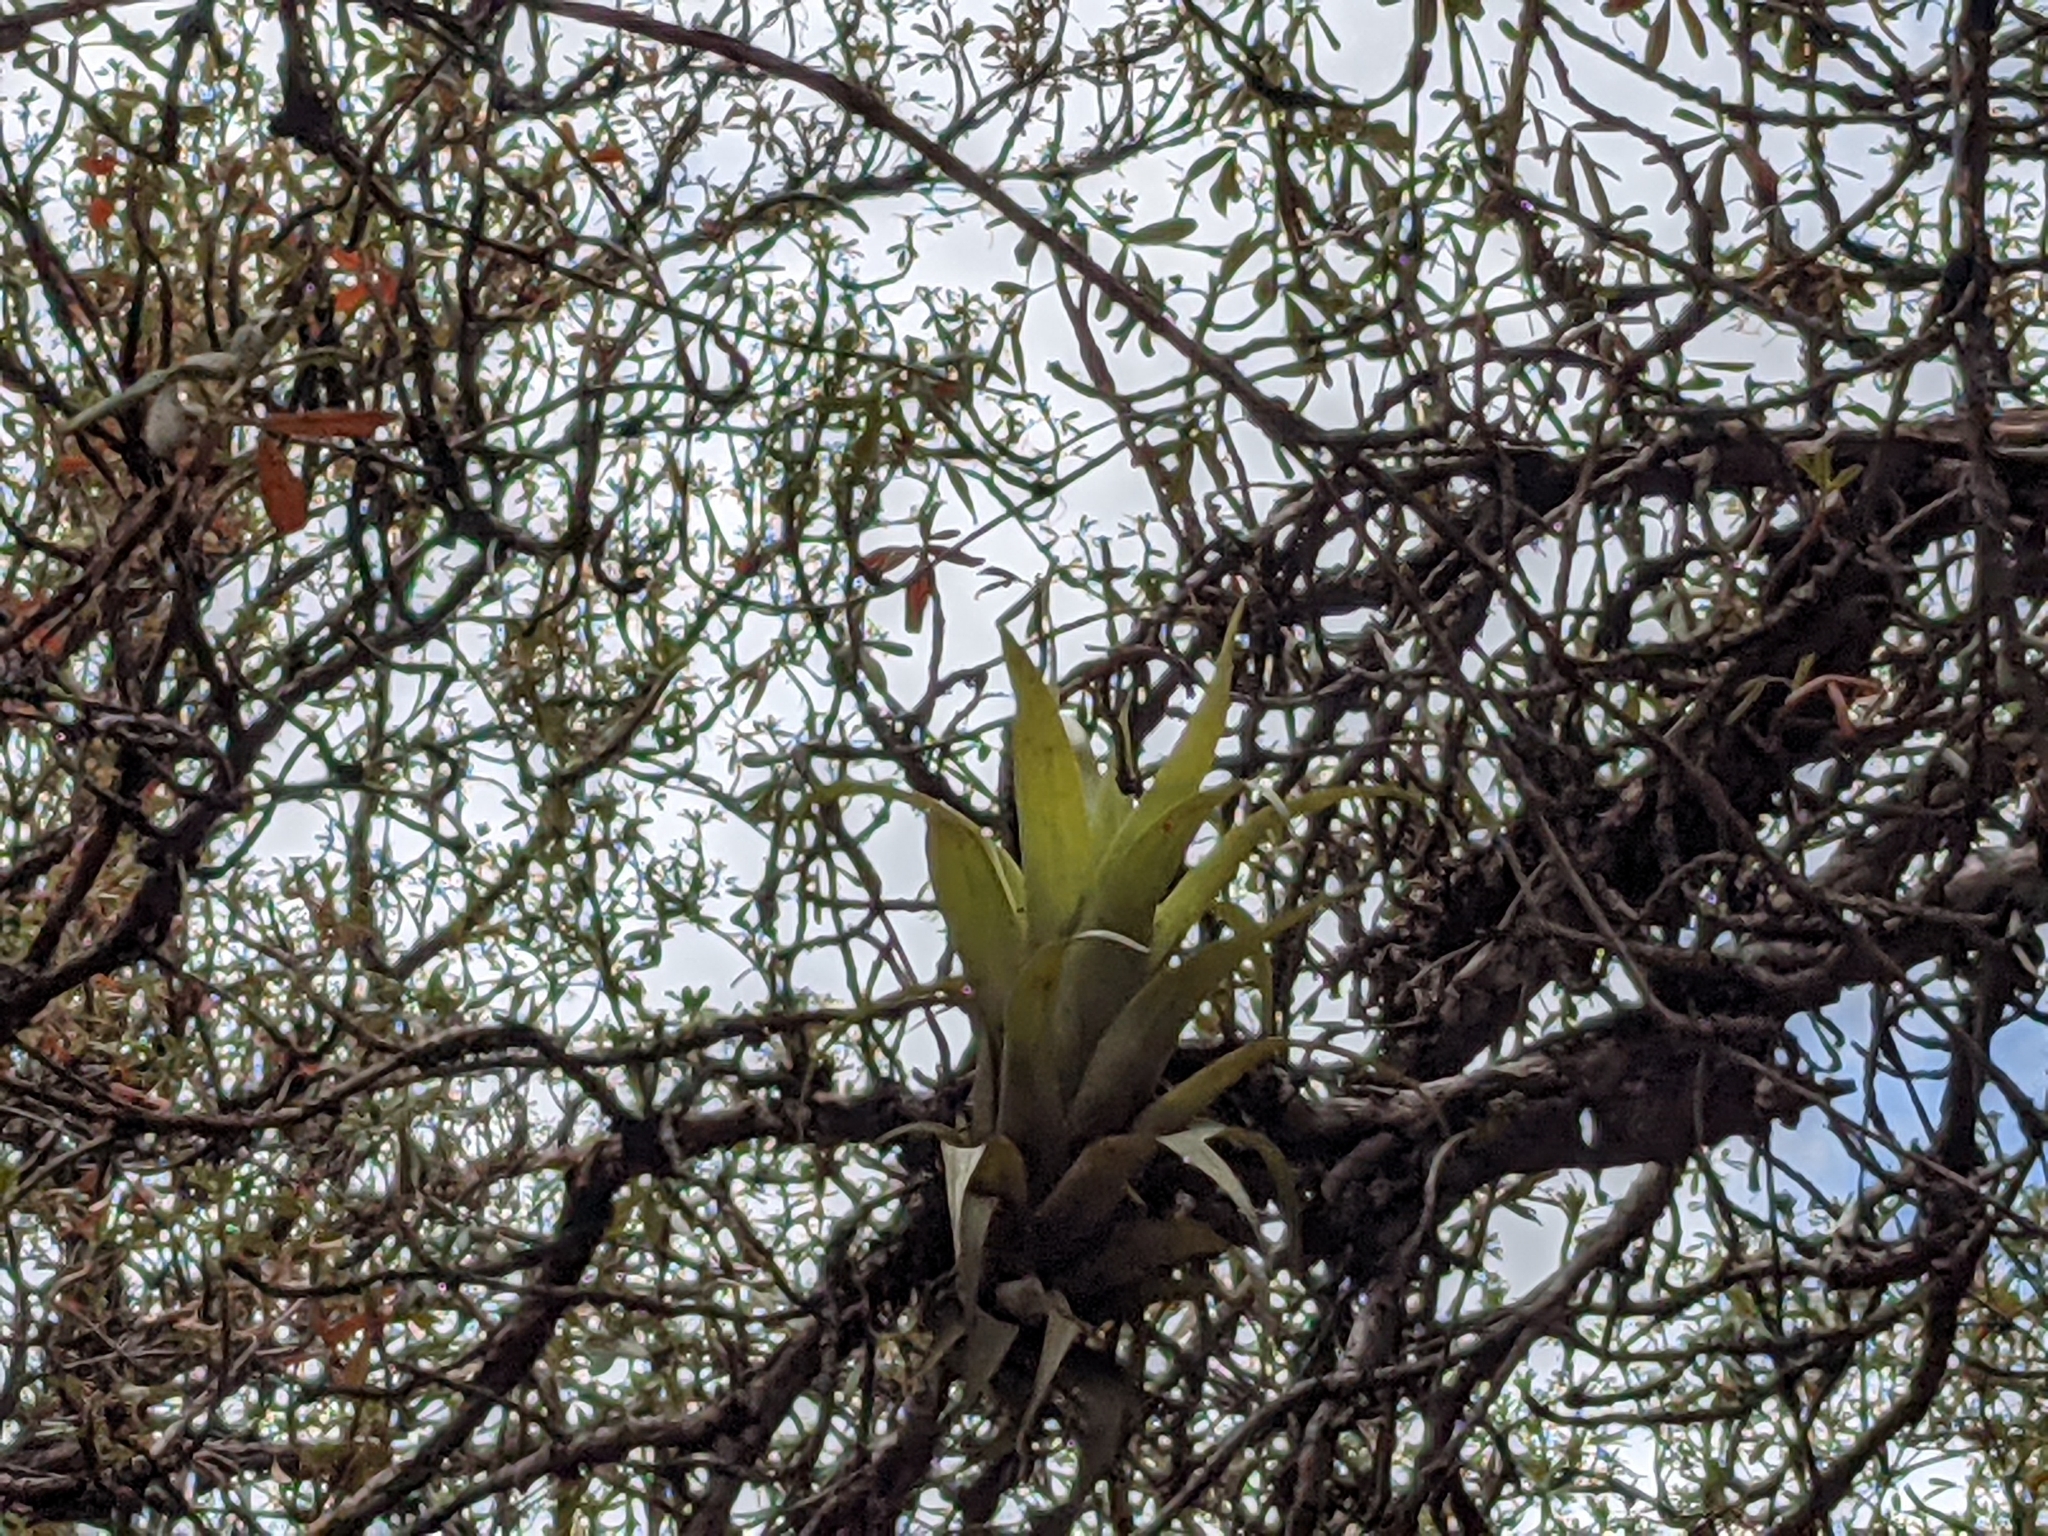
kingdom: Plantae
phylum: Tracheophyta
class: Liliopsida
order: Poales
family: Bromeliaceae
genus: Tillandsia
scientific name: Tillandsia walteri
